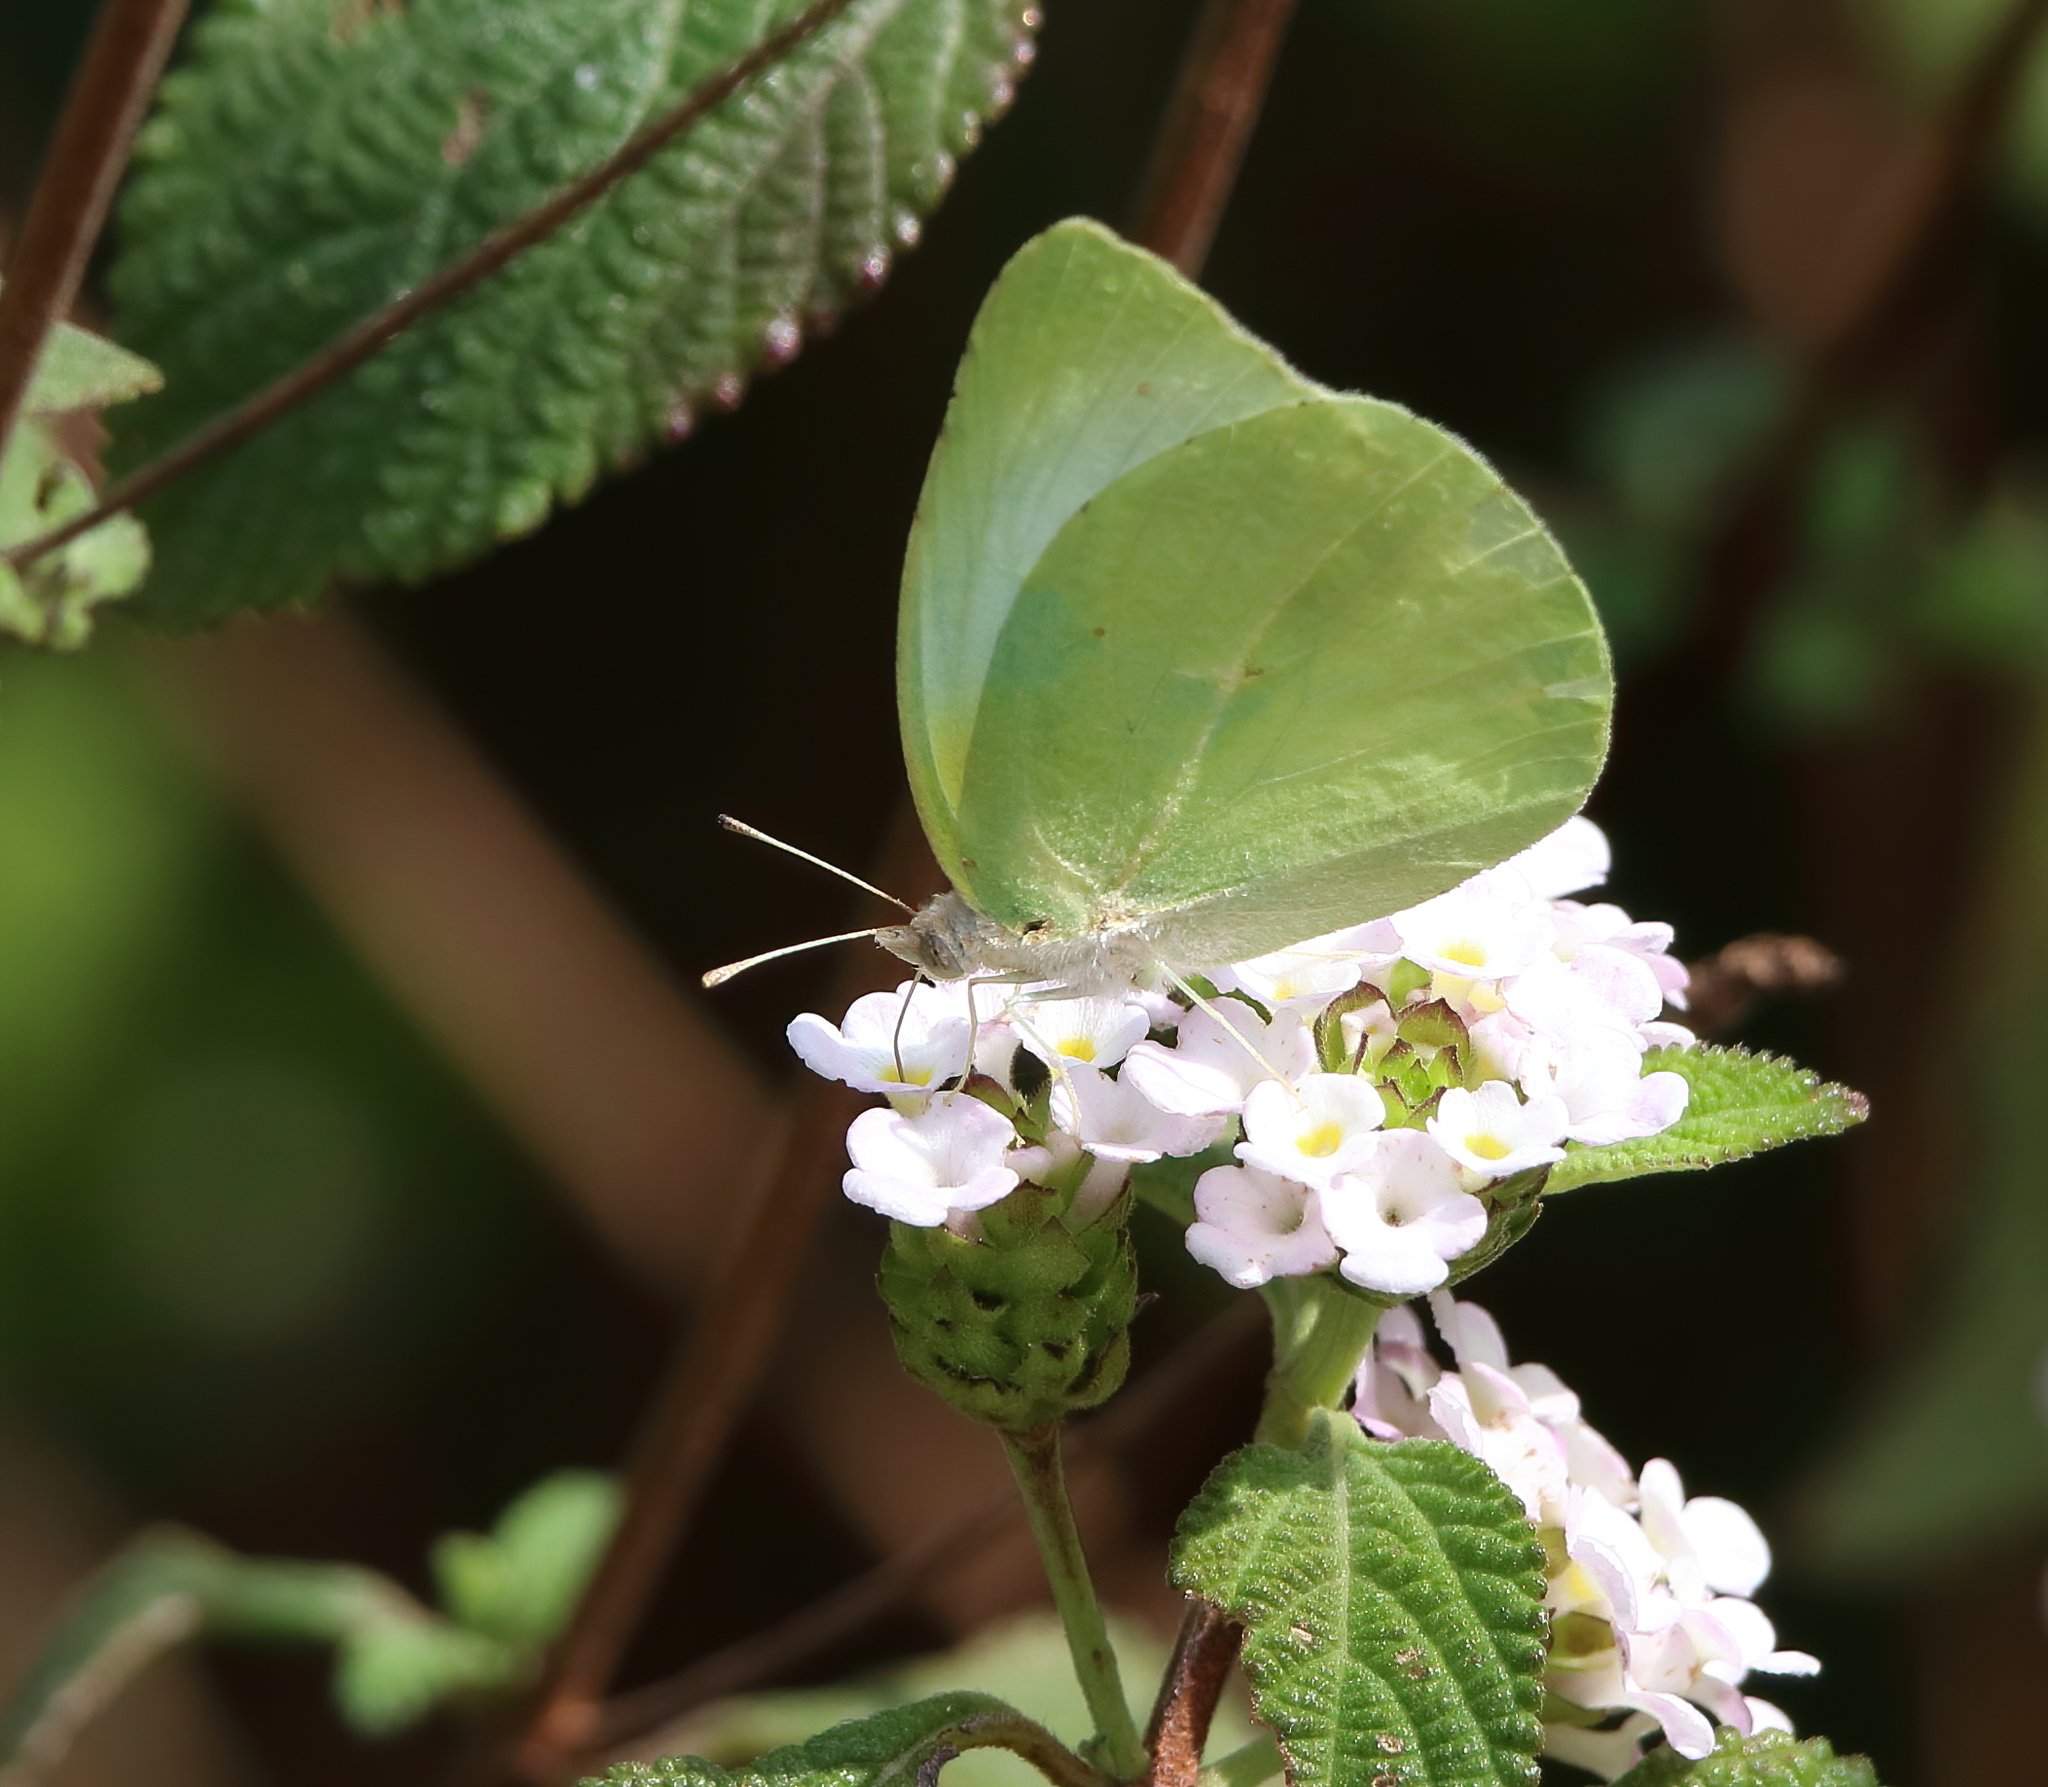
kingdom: Animalia
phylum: Arthropoda
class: Insecta
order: Lepidoptera
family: Pieridae
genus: Kricogonia
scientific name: Kricogonia lyside
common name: Guayacan sulphur,
